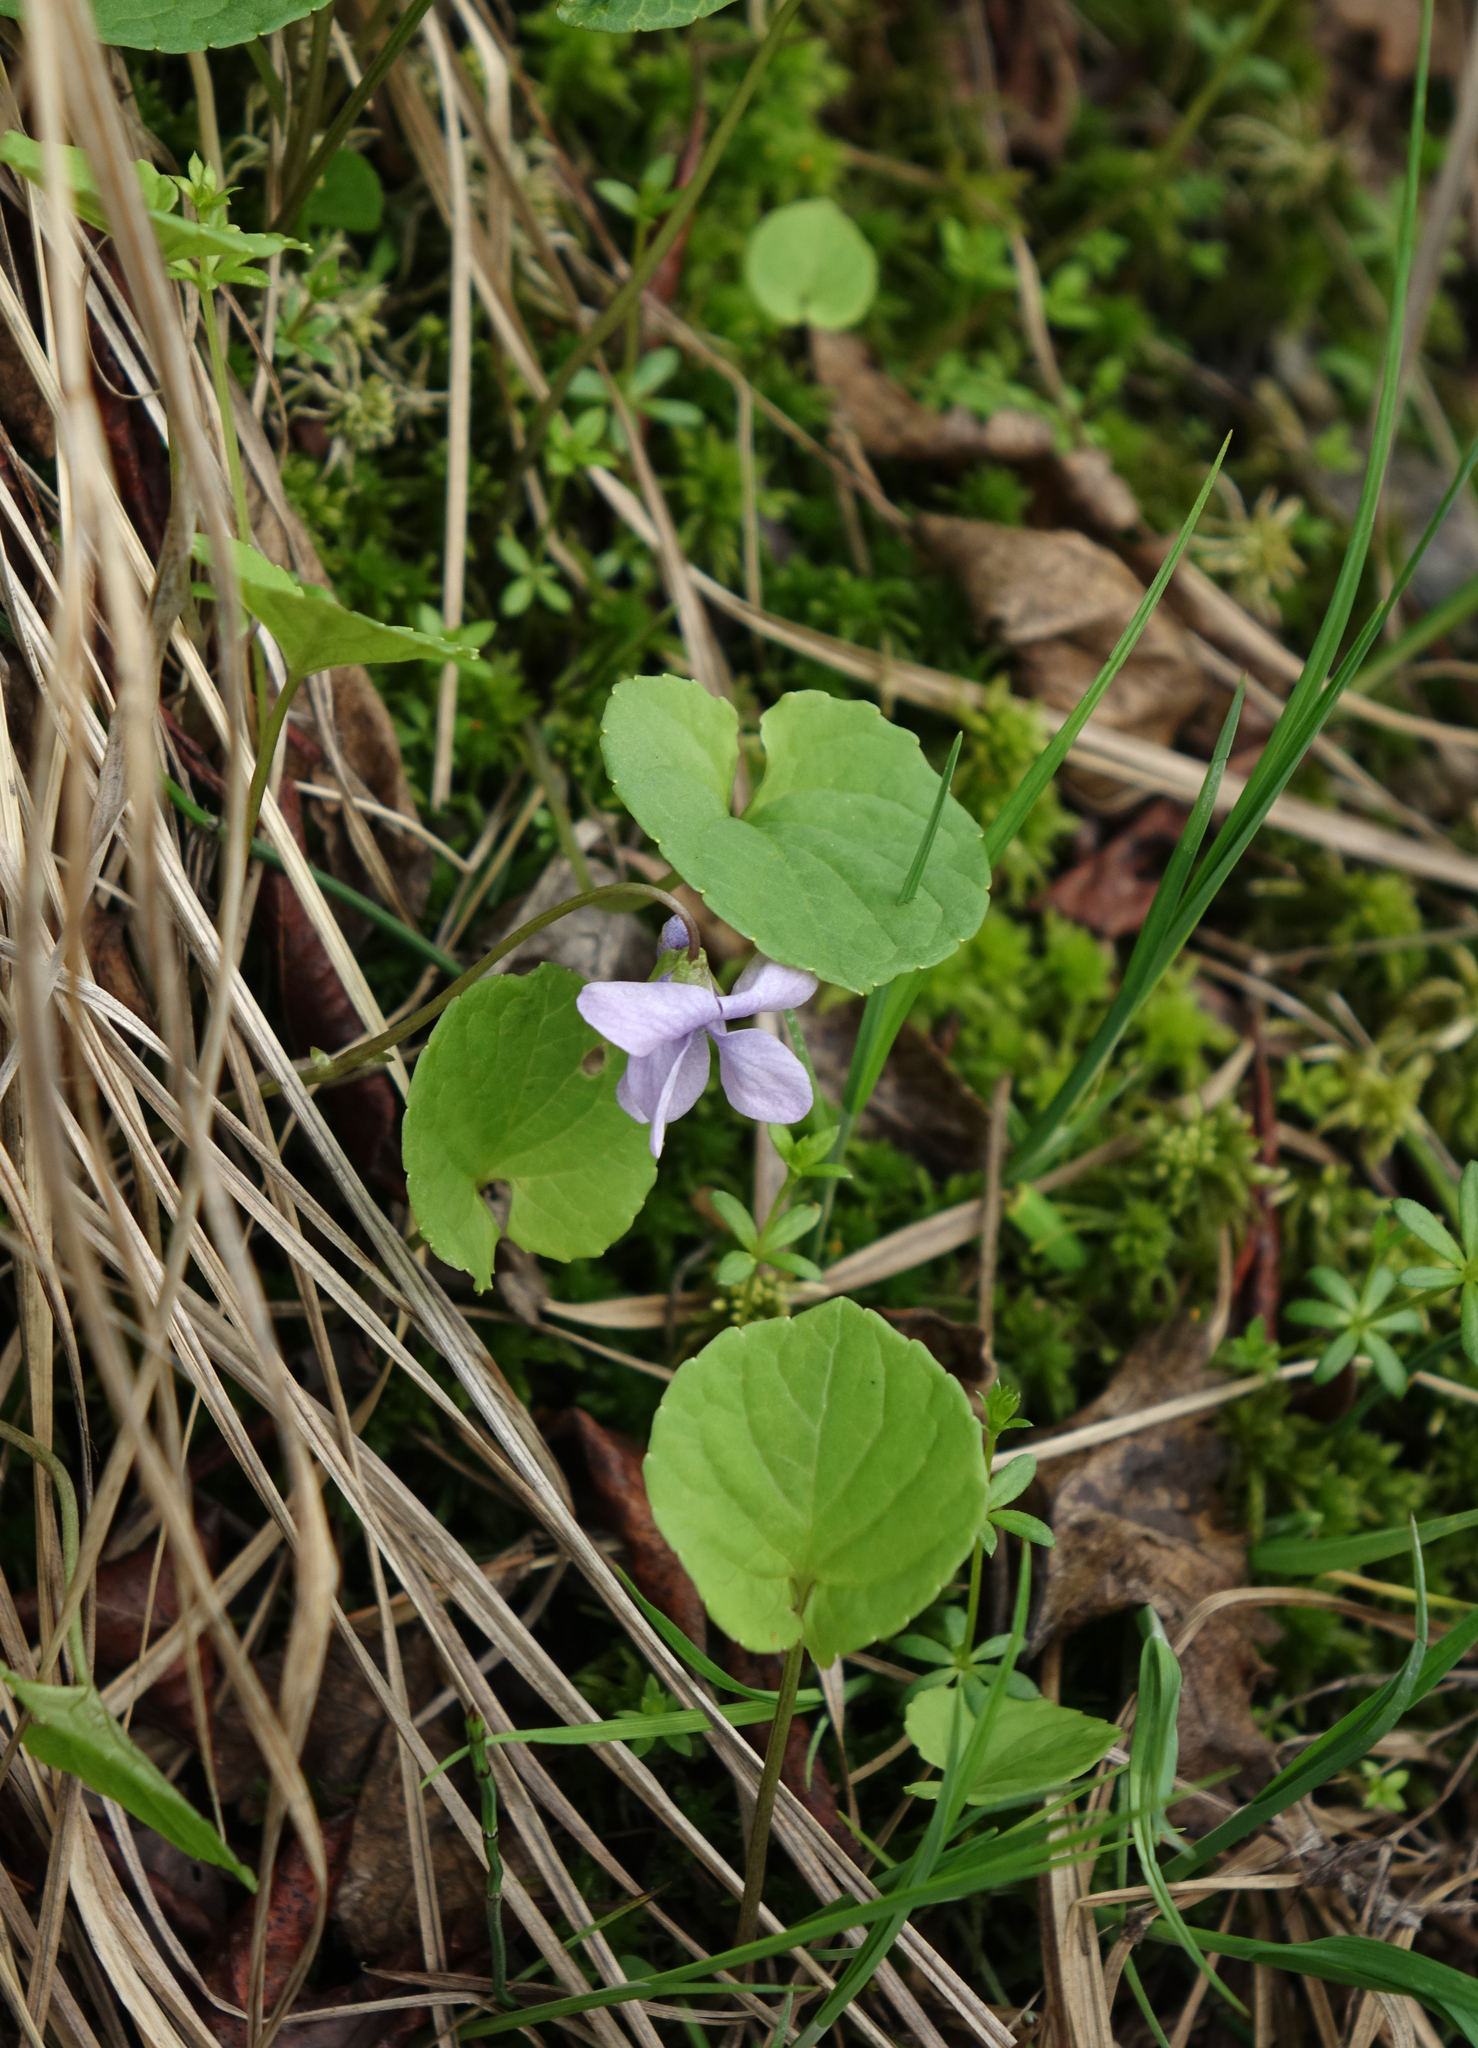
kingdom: Plantae
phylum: Tracheophyta
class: Magnoliopsida
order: Malpighiales
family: Violaceae
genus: Viola
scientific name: Viola selkirkii
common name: Selkirk's violet
